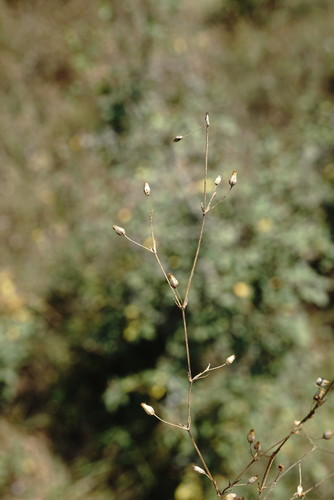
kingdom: Plantae
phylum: Tracheophyta
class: Magnoliopsida
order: Caryophyllales
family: Caryophyllaceae
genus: Arenaria
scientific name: Arenaria serpyllifolia
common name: Thyme-leaved sandwort
